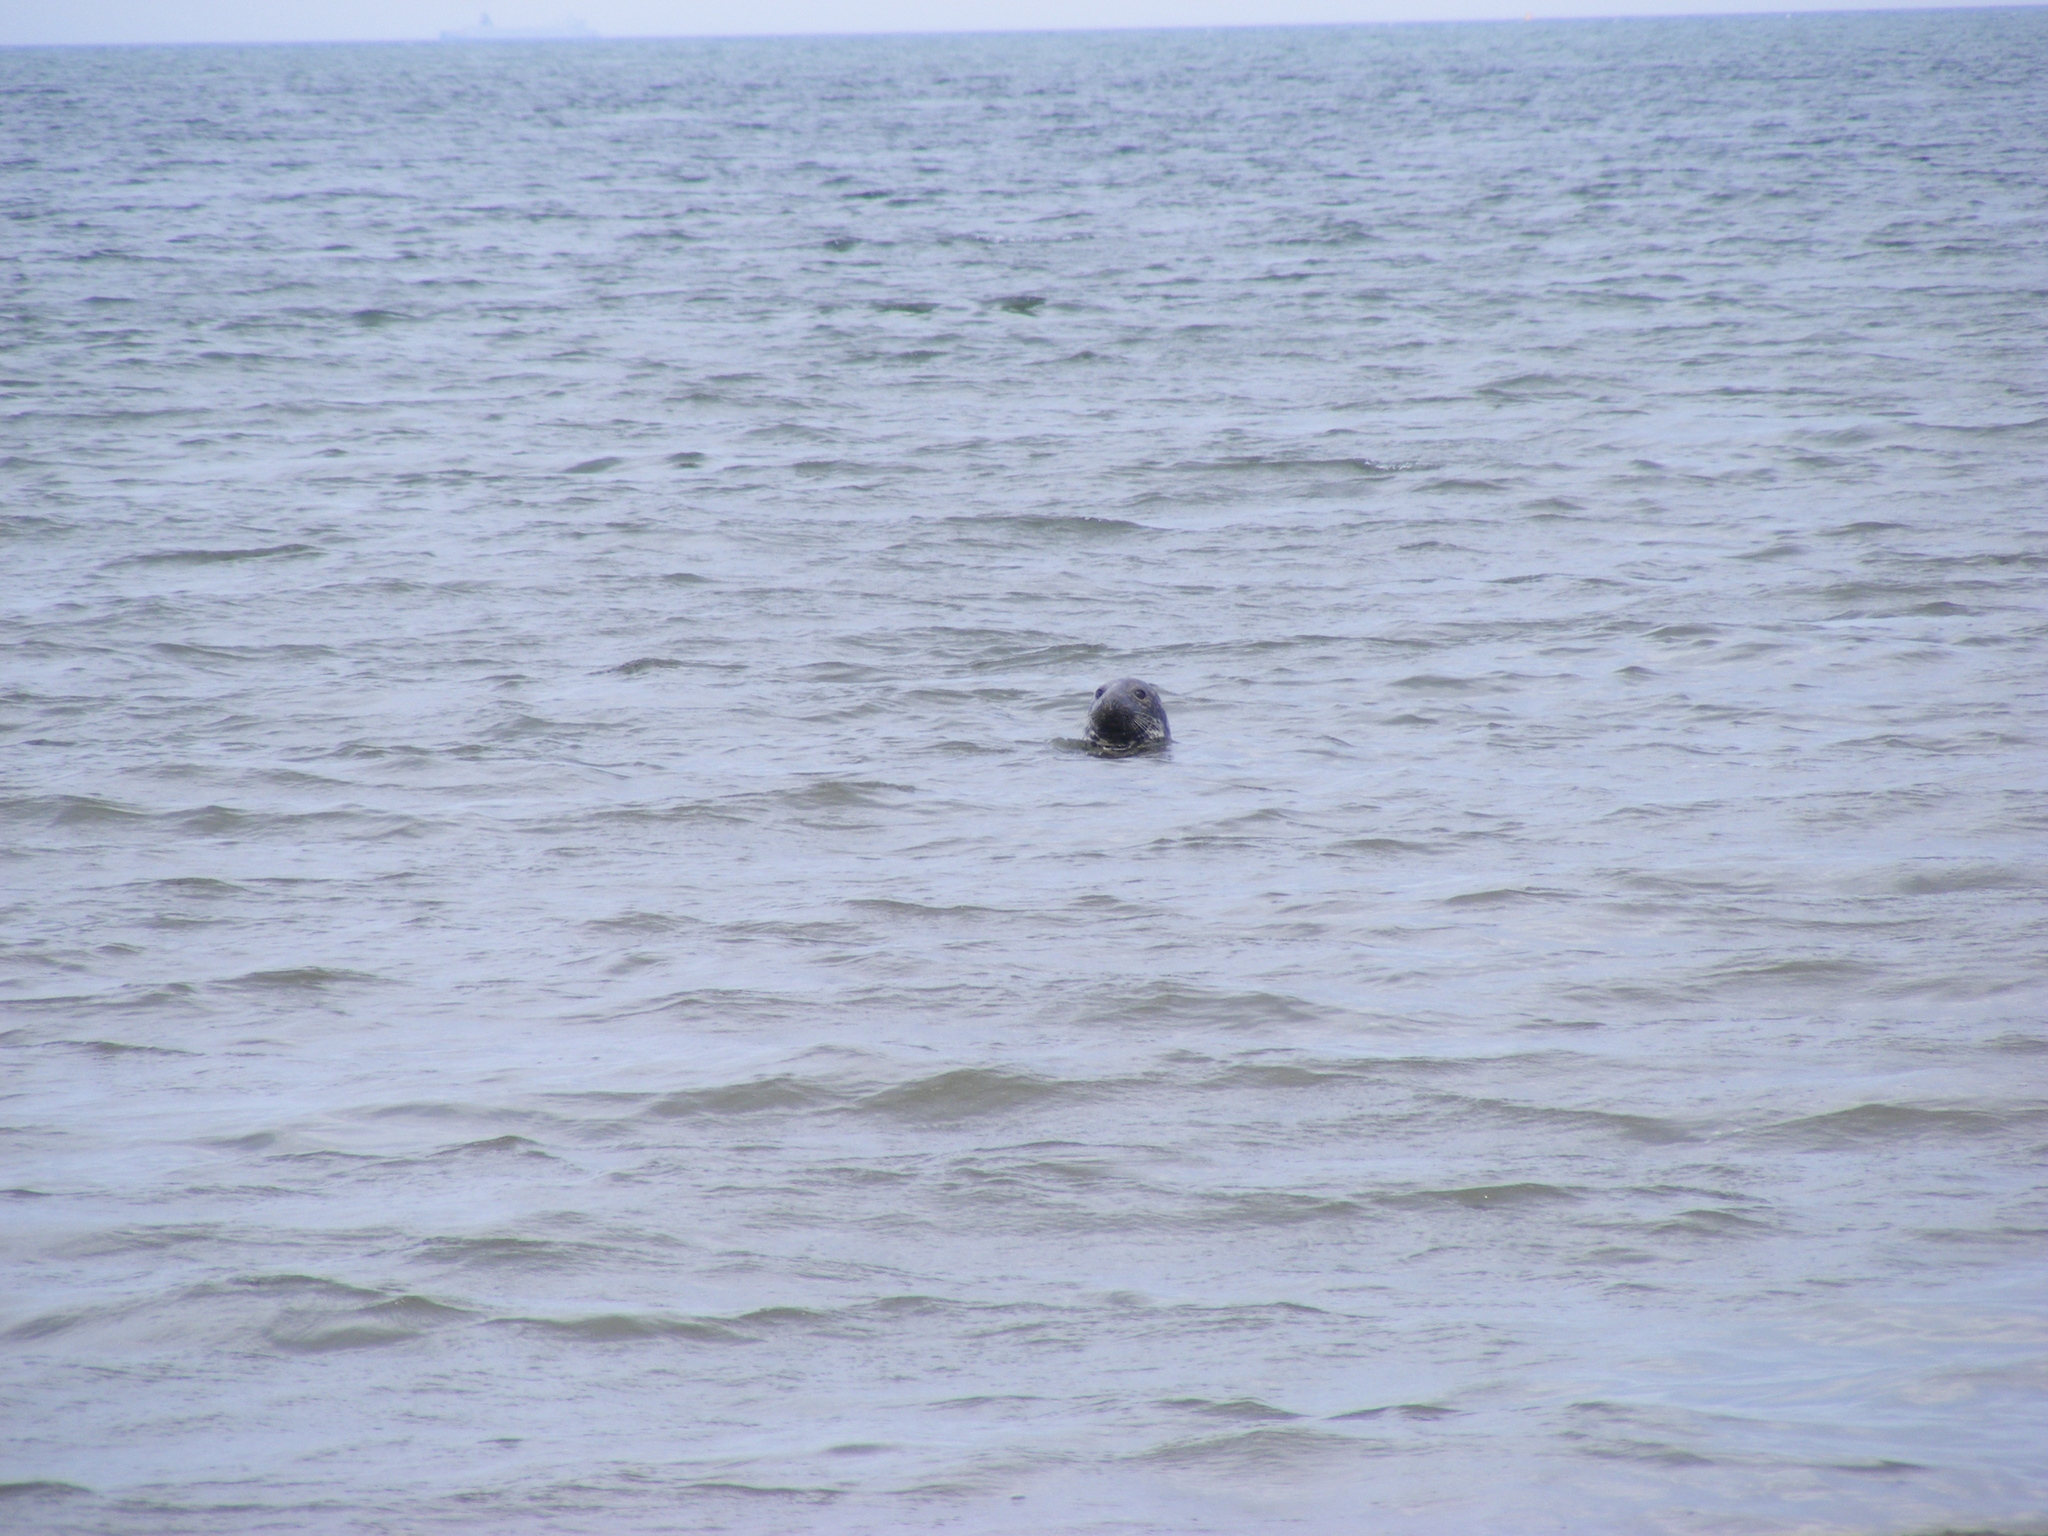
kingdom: Animalia
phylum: Chordata
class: Mammalia
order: Carnivora
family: Phocidae
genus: Halichoerus
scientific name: Halichoerus grypus
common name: Grey seal
